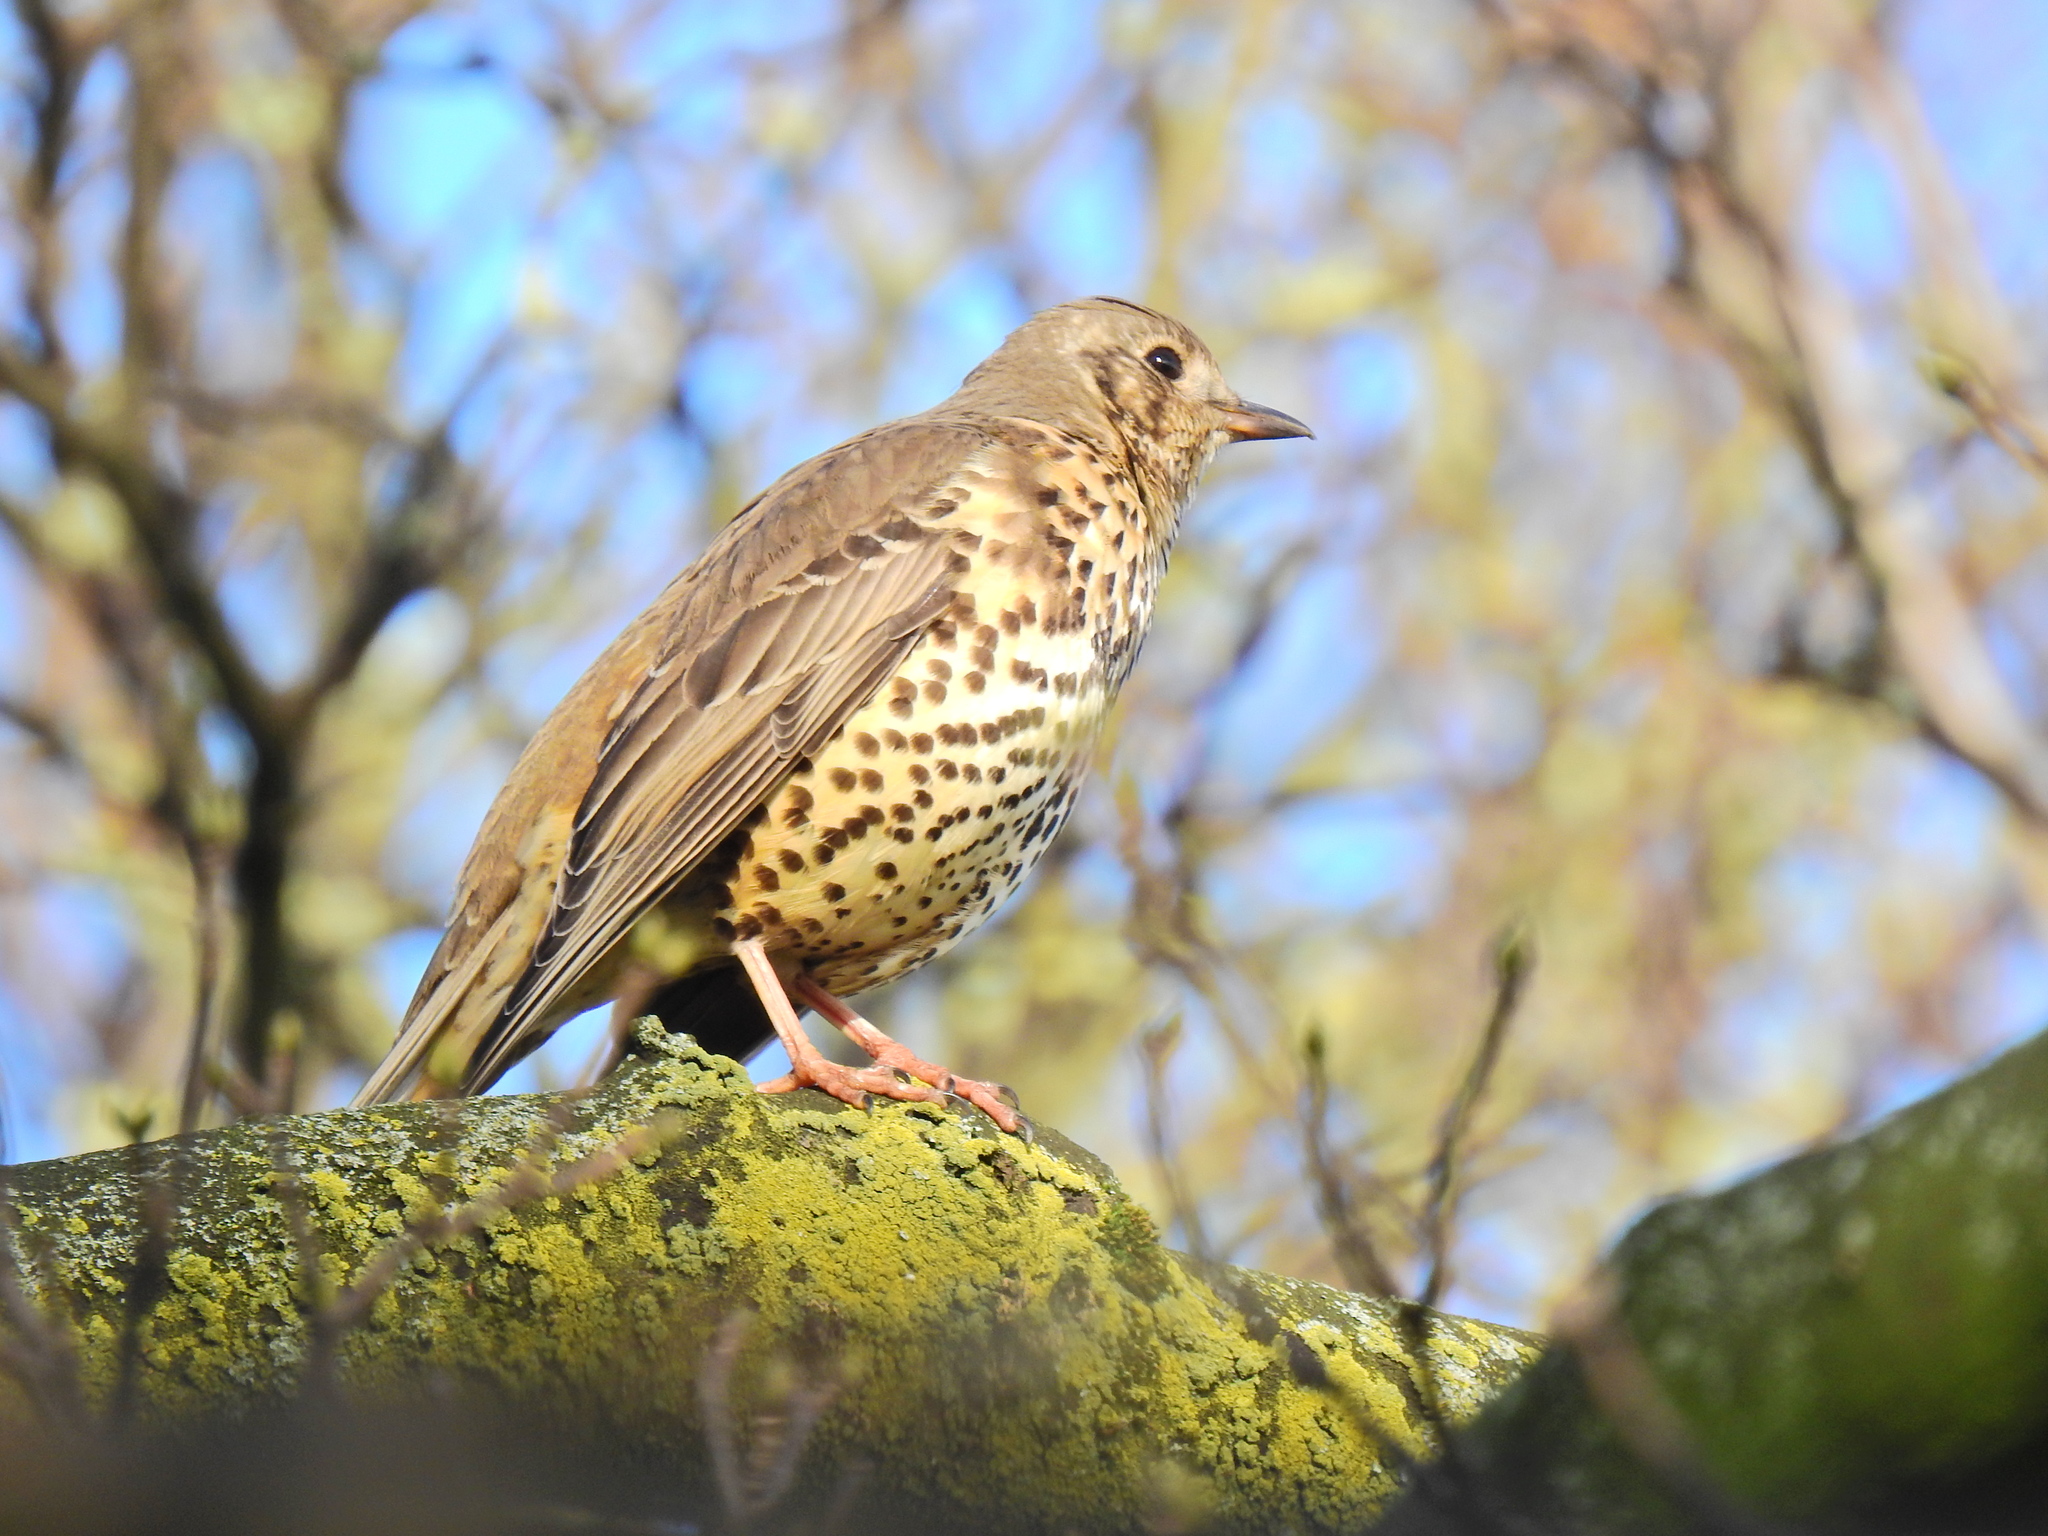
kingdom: Animalia
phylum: Chordata
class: Aves
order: Passeriformes
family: Turdidae
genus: Turdus
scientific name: Turdus viscivorus
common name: Mistle thrush
